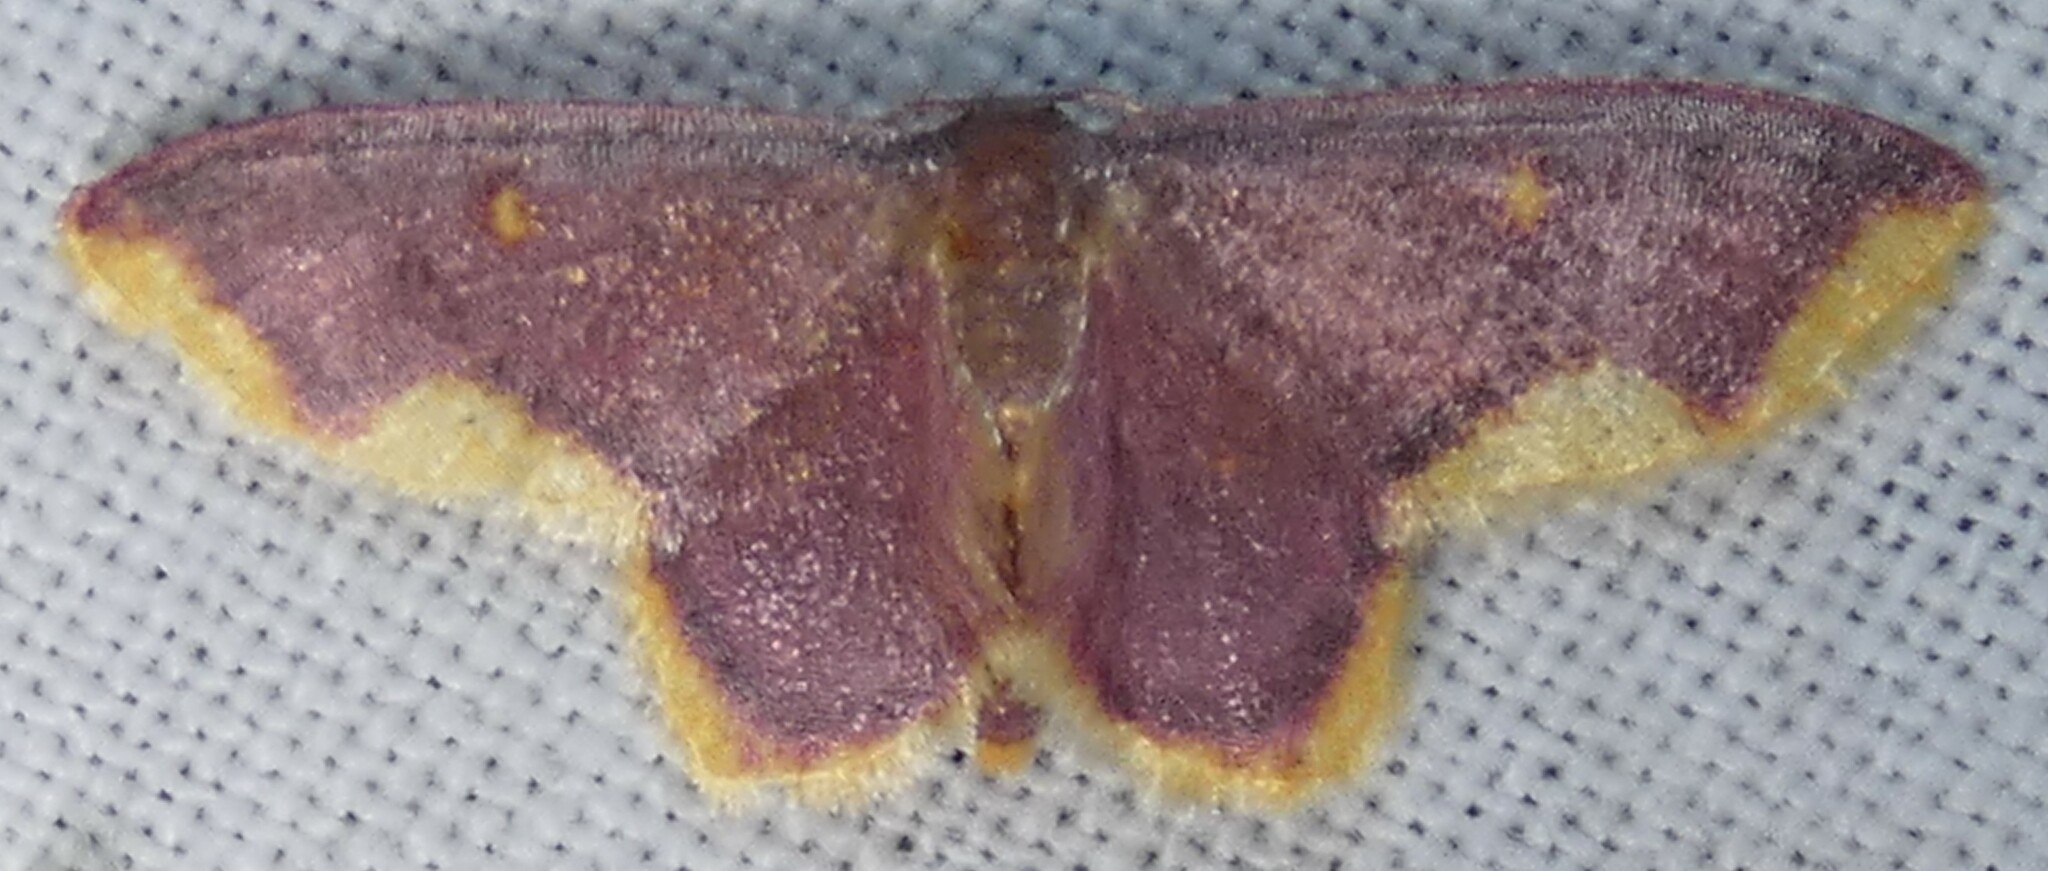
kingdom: Animalia
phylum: Arthropoda
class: Insecta
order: Lepidoptera
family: Geometridae
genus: Lophosis
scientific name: Lophosis labeculata
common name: Stained lophosis moth
